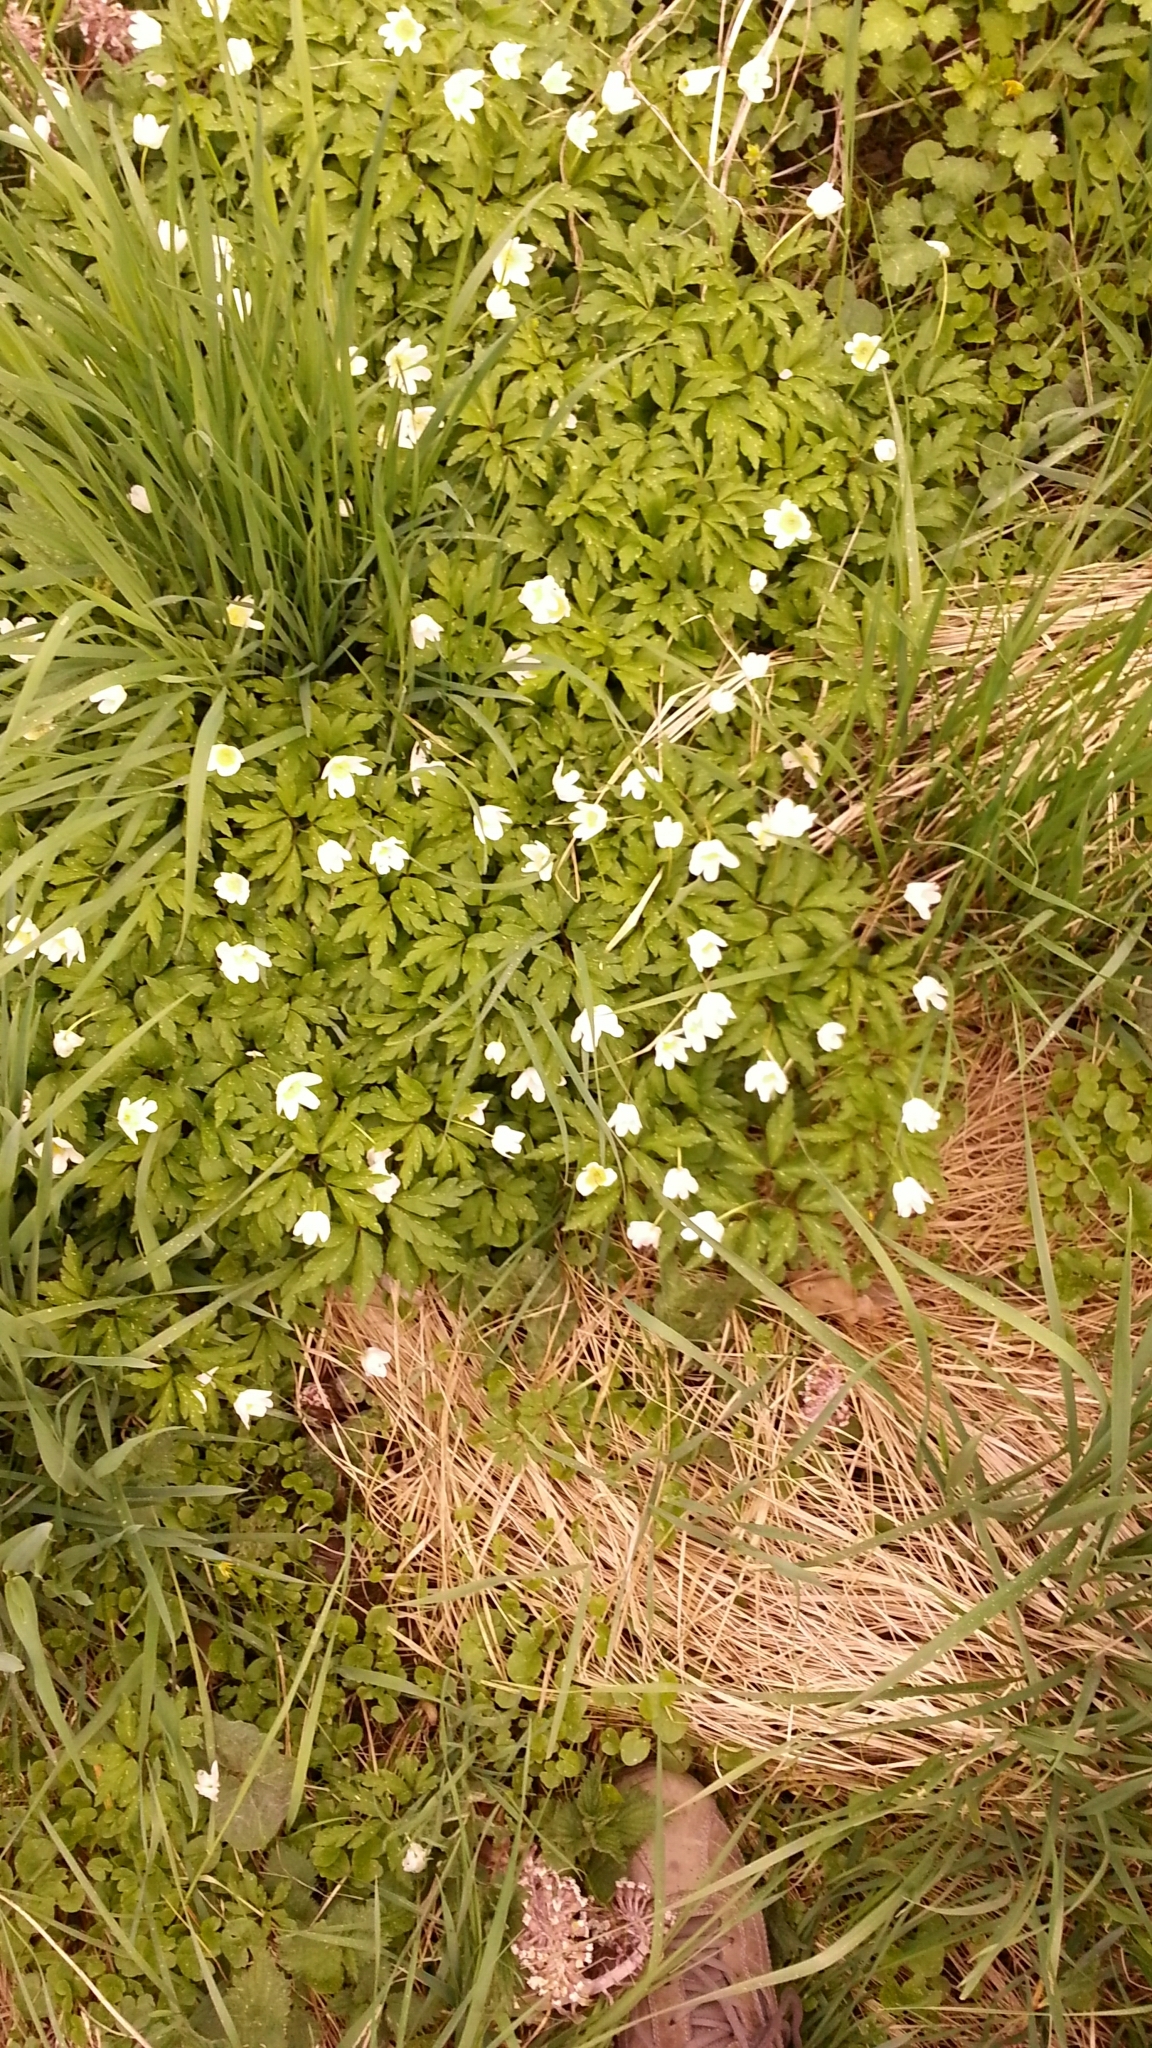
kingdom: Plantae
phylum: Tracheophyta
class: Magnoliopsida
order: Ranunculales
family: Ranunculaceae
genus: Anemone
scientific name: Anemone nemorosa
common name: Wood anemone
